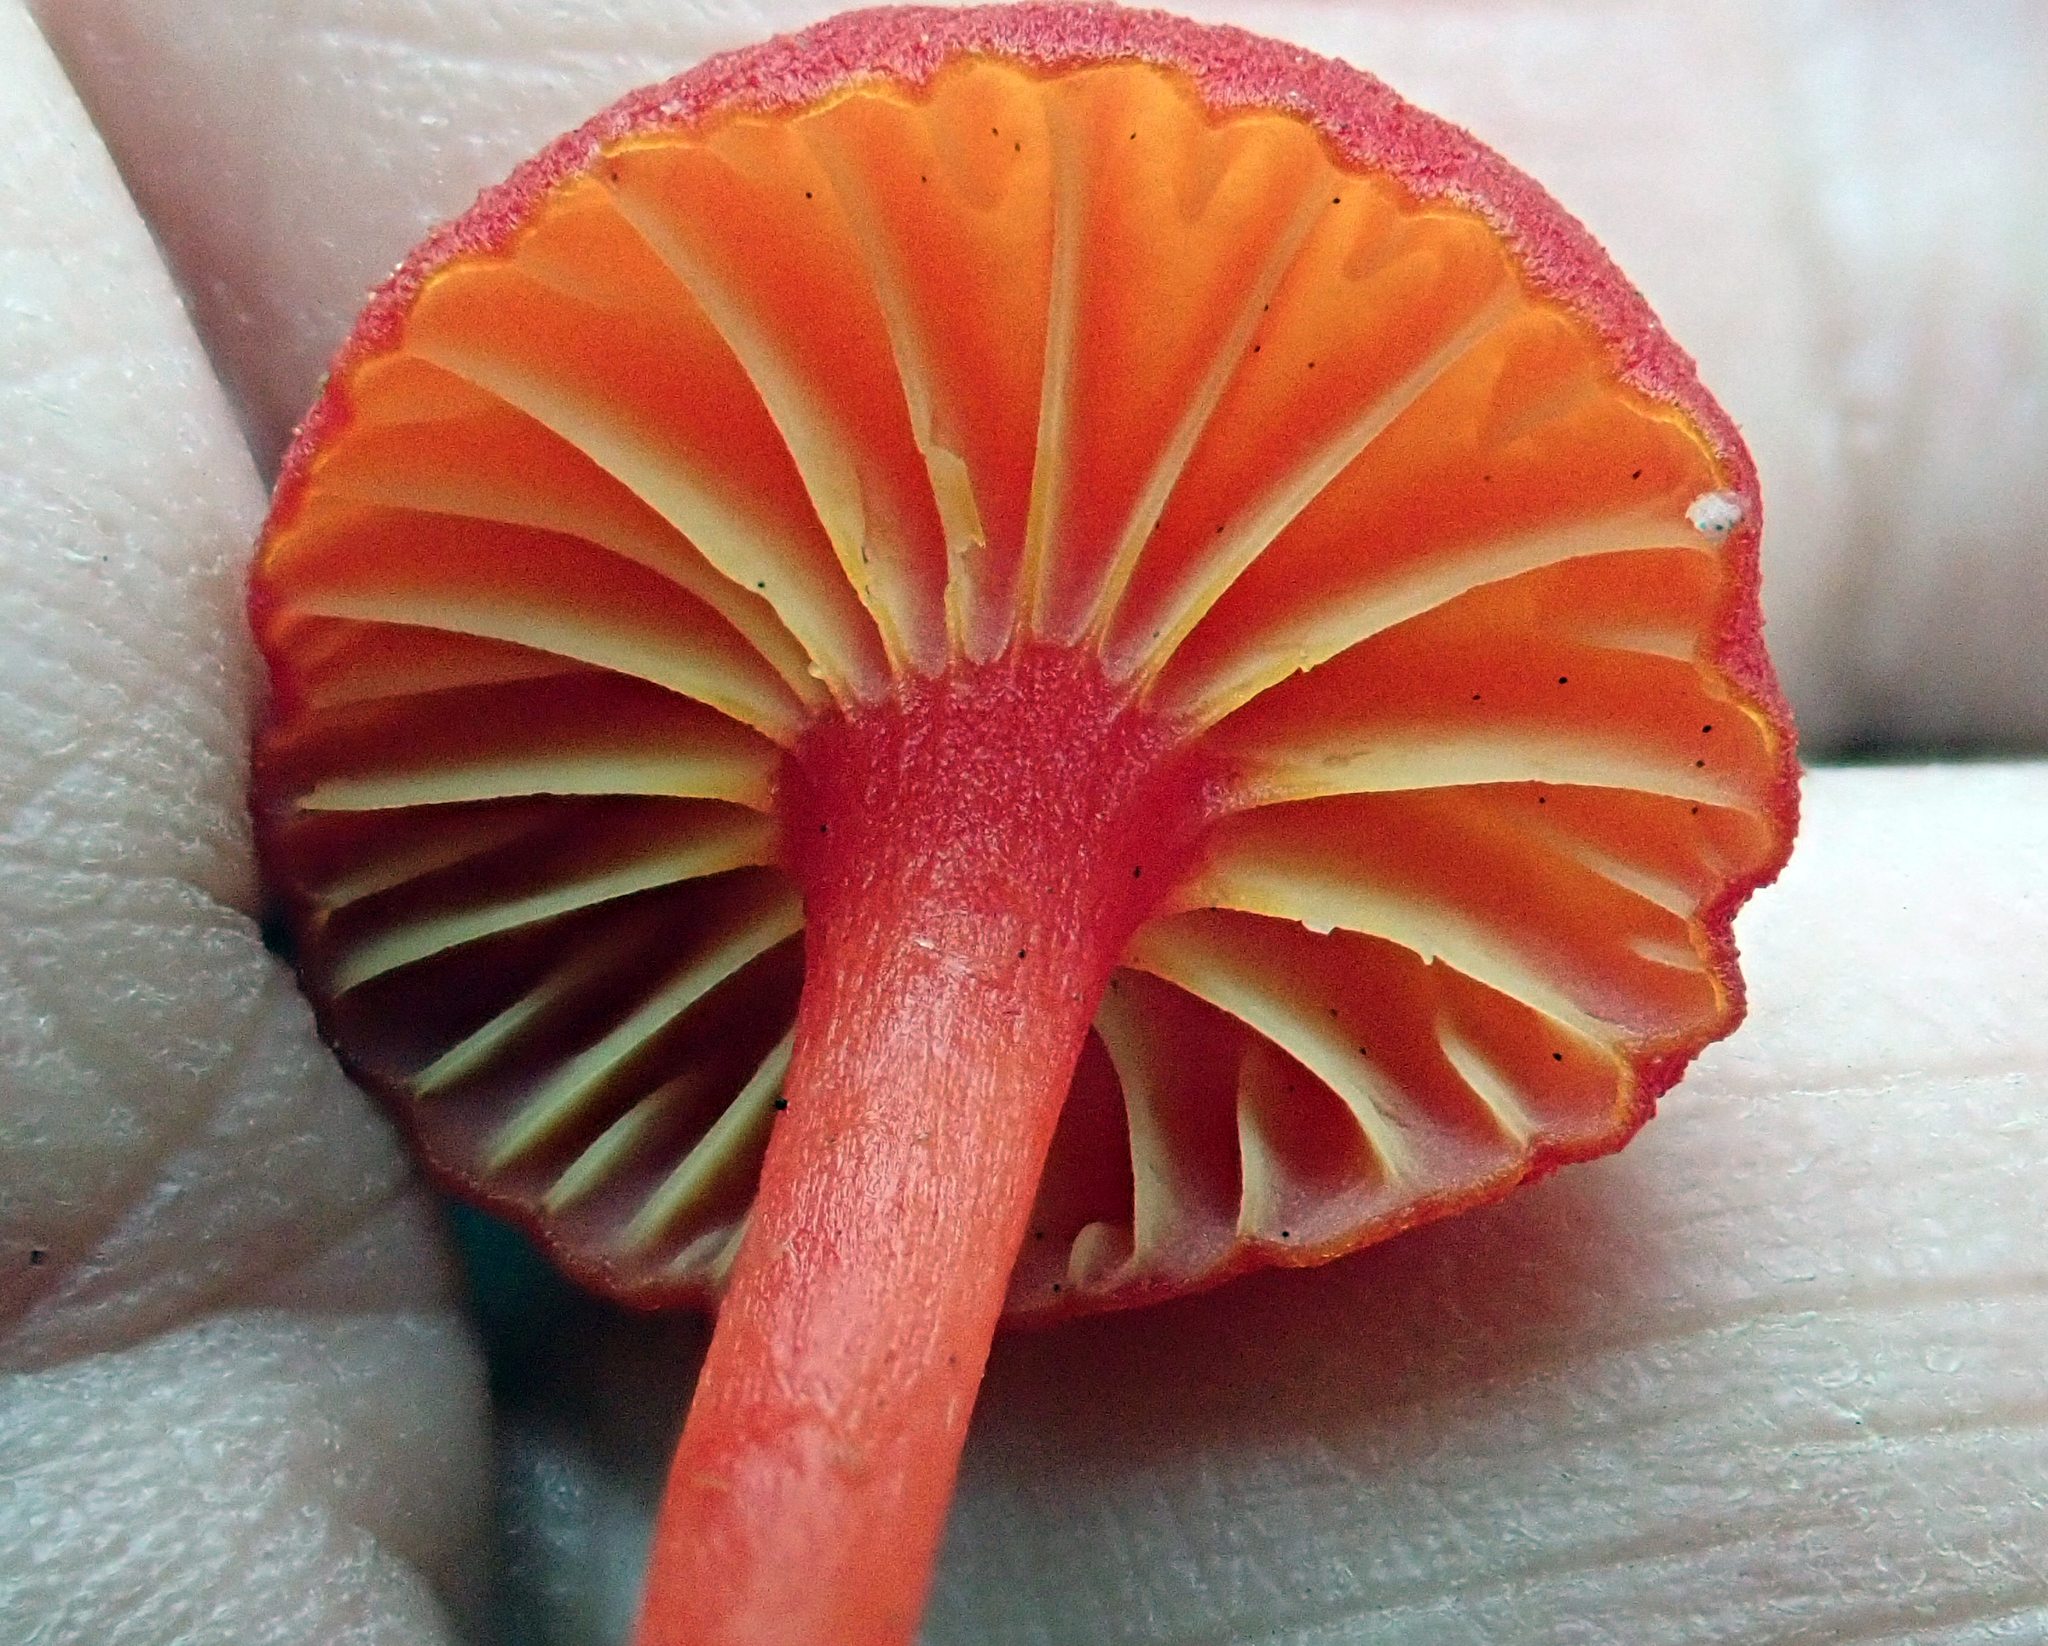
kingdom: Fungi
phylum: Basidiomycota
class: Agaricomycetes
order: Agaricales
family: Hygrophoraceae
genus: Hygrocybe
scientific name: Hygrocybe cantharellus
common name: Goblet waxcap
